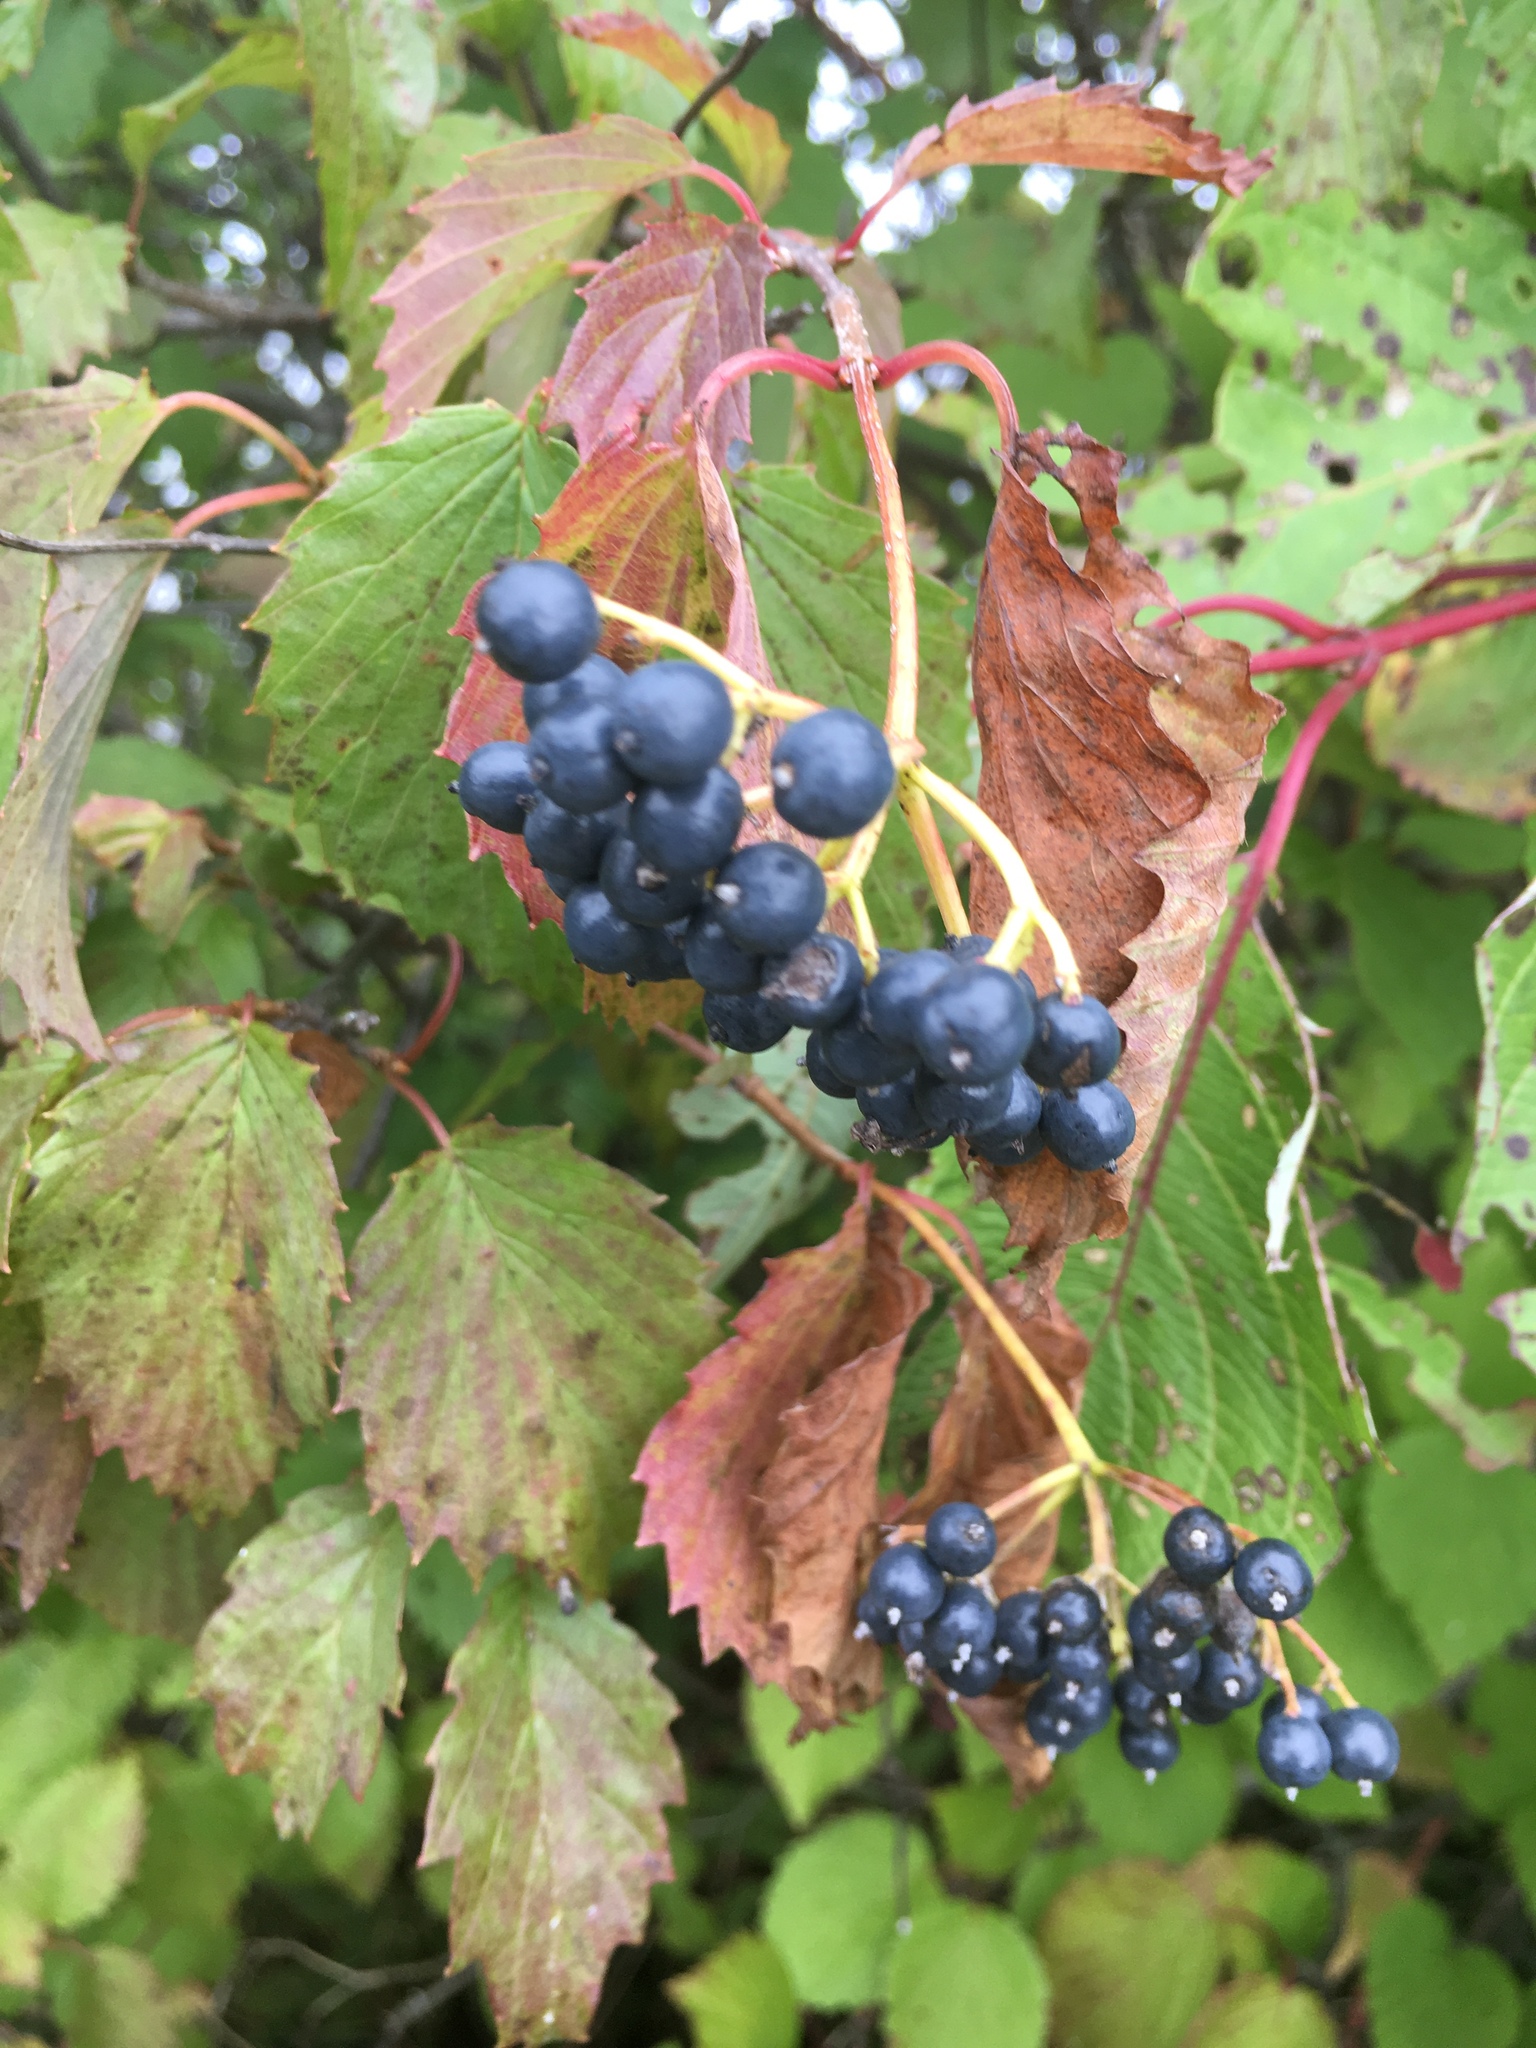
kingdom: Plantae
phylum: Tracheophyta
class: Magnoliopsida
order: Dipsacales
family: Viburnaceae
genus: Viburnum
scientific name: Viburnum recognitum
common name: Northern arrow-wood
